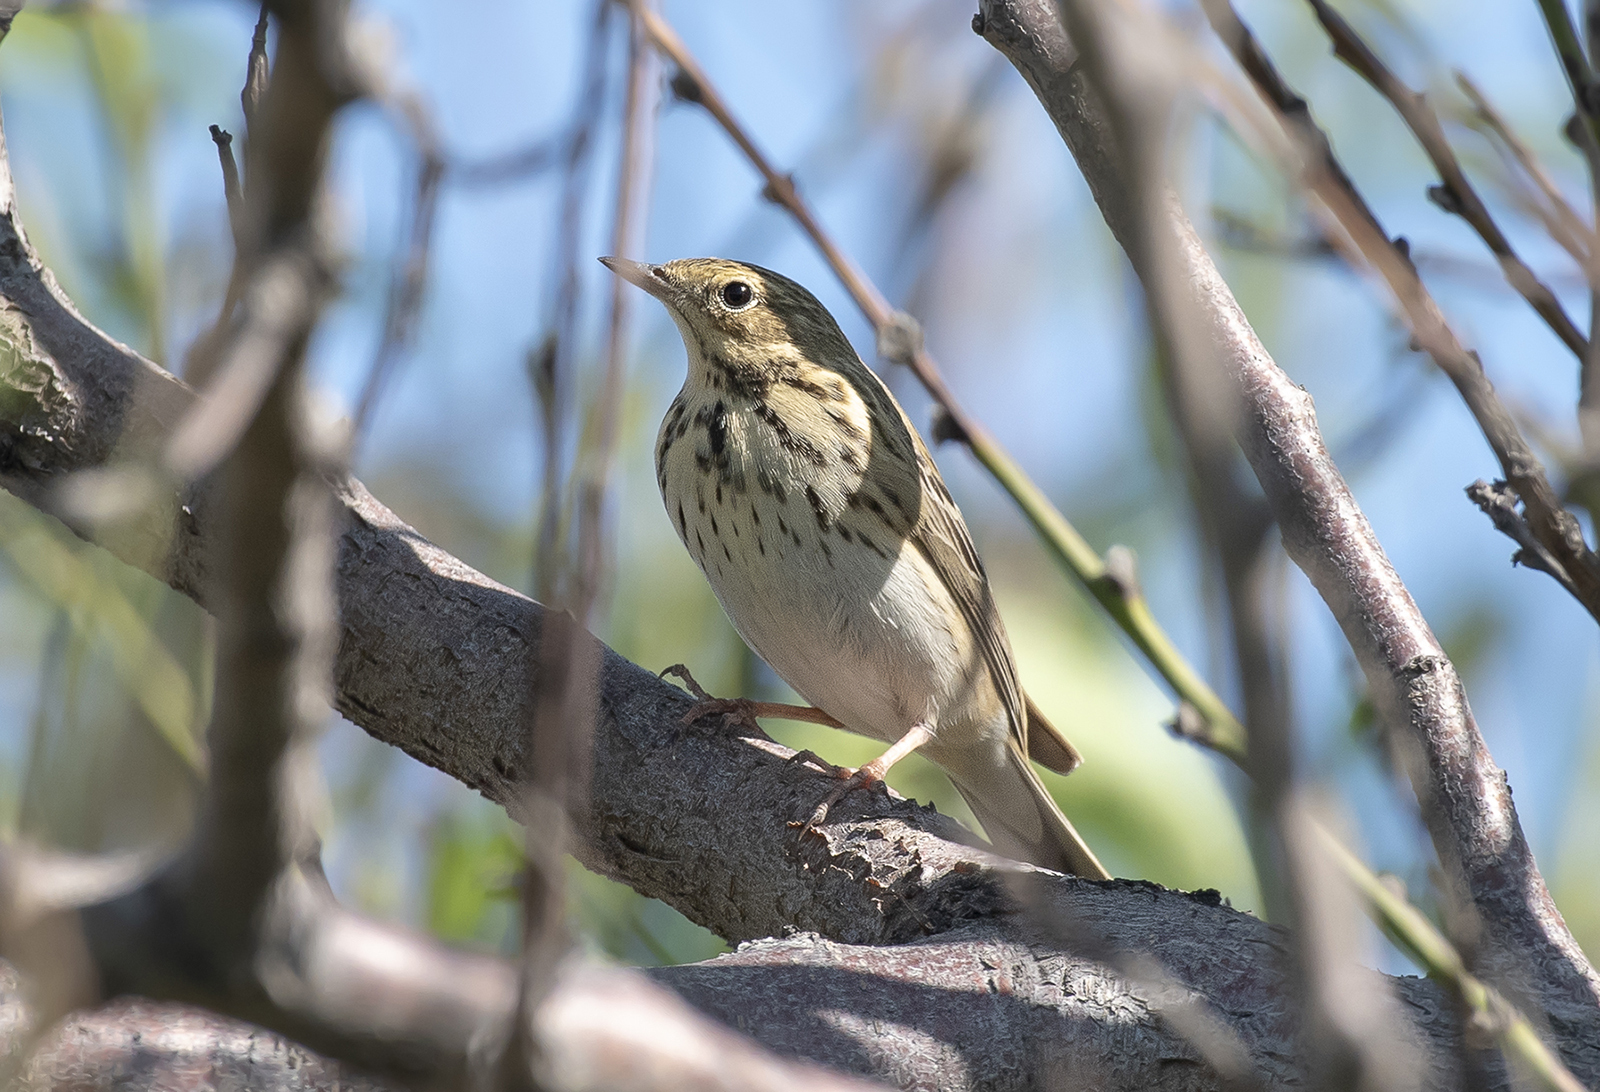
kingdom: Animalia
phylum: Chordata
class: Aves
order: Passeriformes
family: Motacillidae
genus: Anthus
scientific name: Anthus trivialis
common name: Tree pipit
